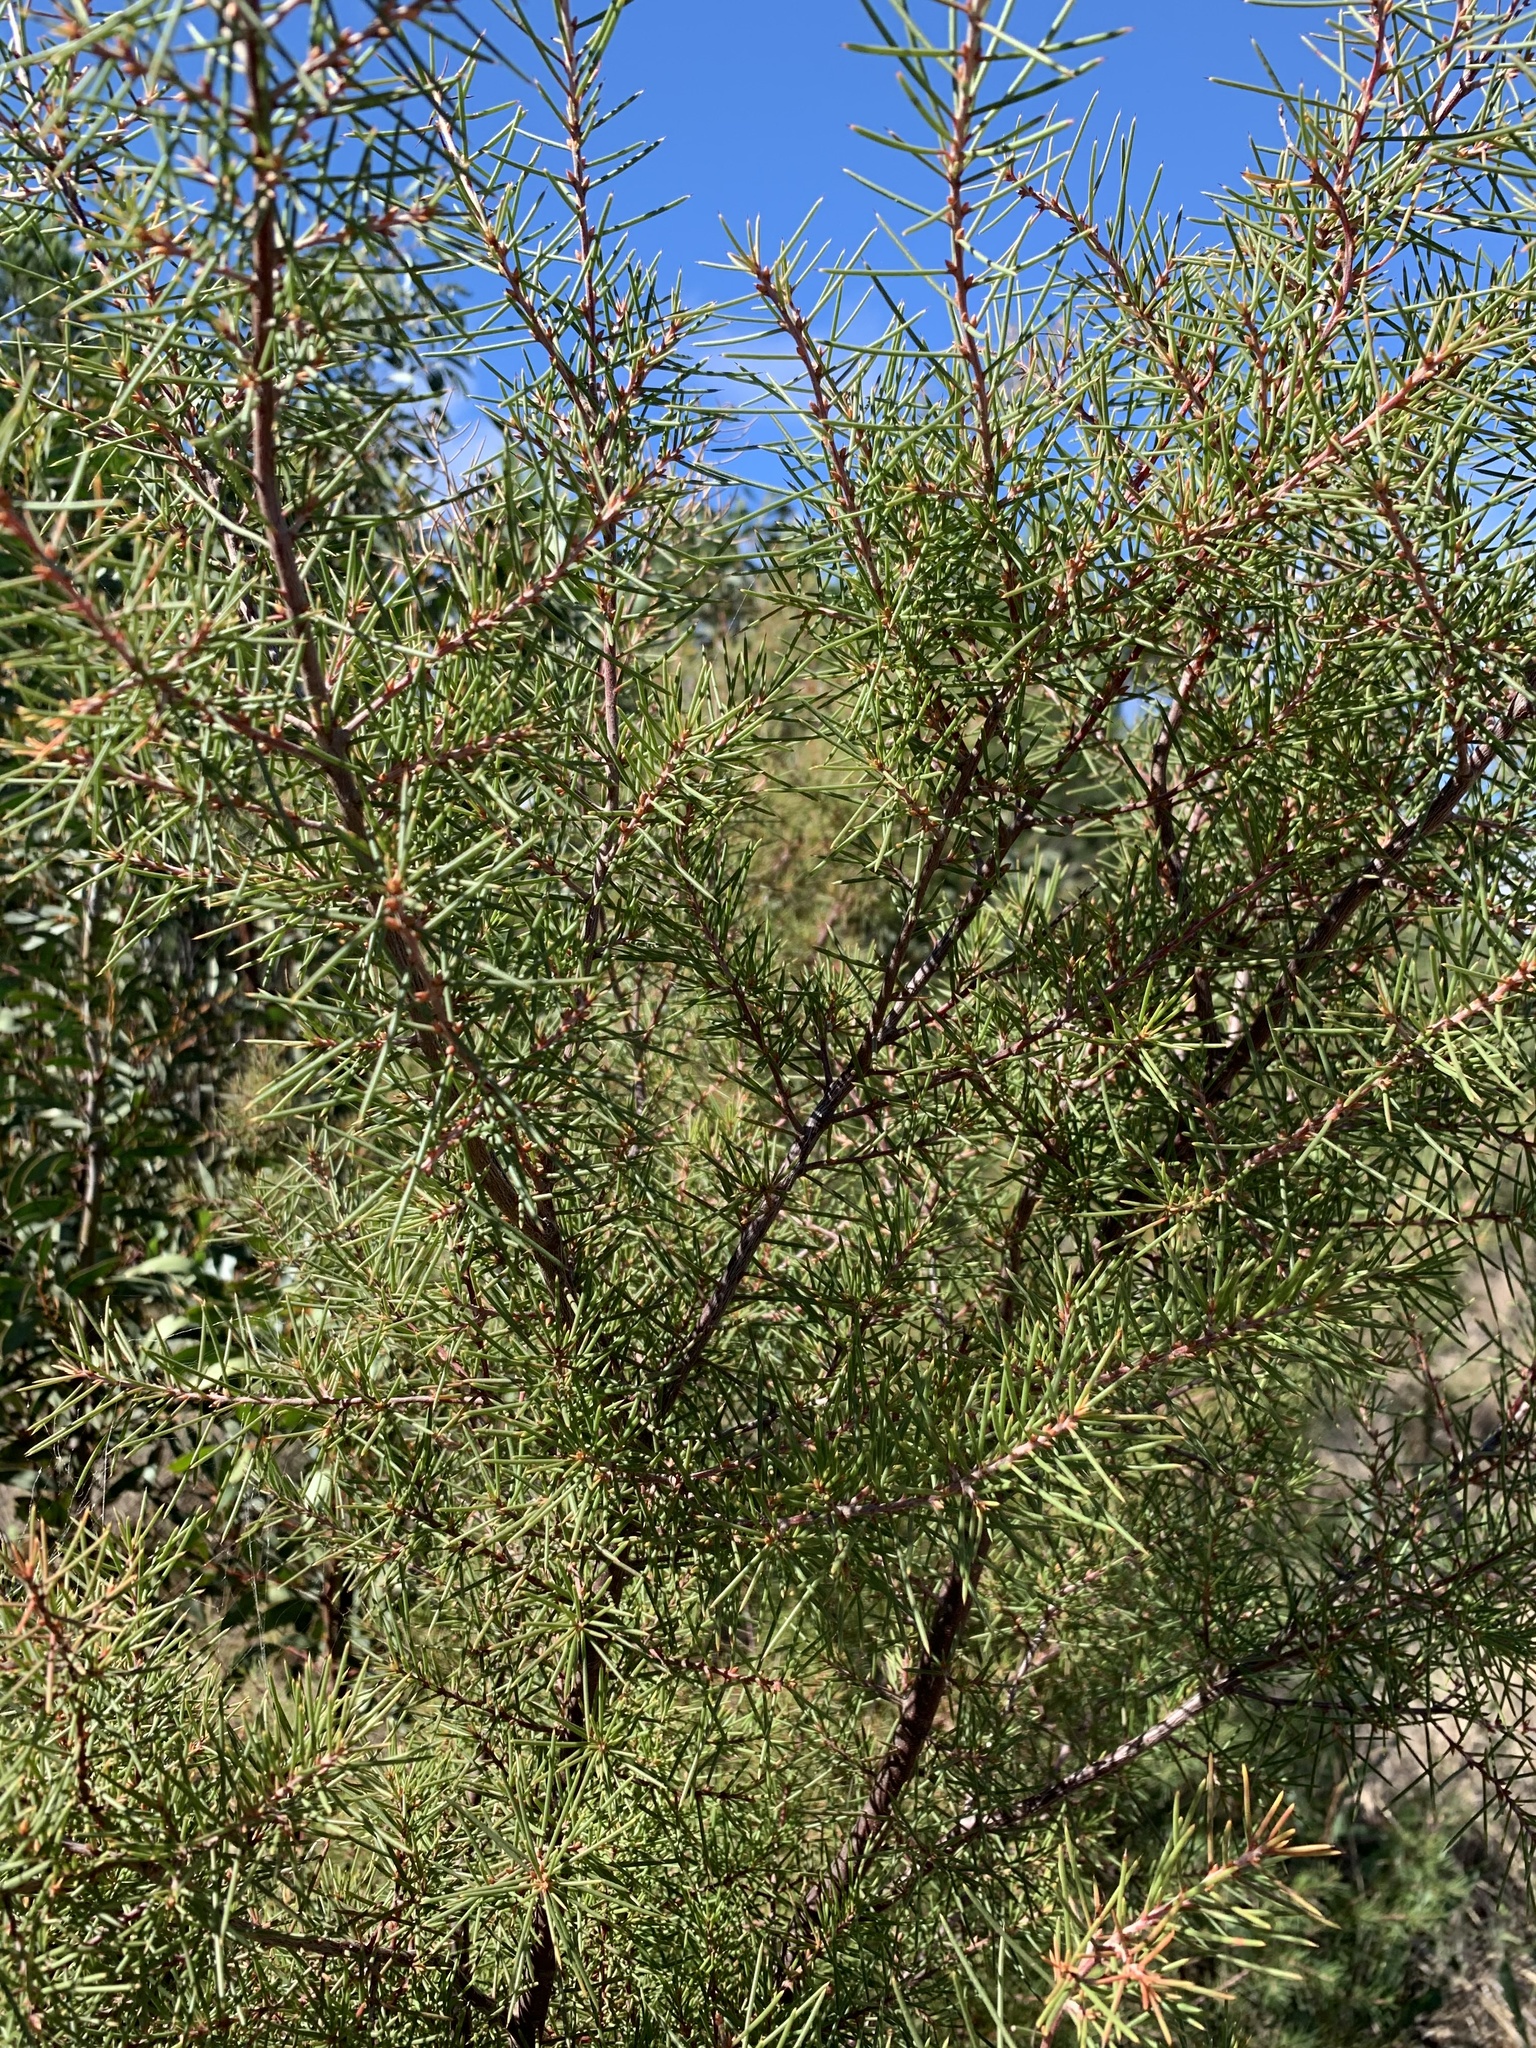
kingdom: Plantae
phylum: Tracheophyta
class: Magnoliopsida
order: Proteales
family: Proteaceae
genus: Hakea
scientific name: Hakea sericea
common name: Needle bush
